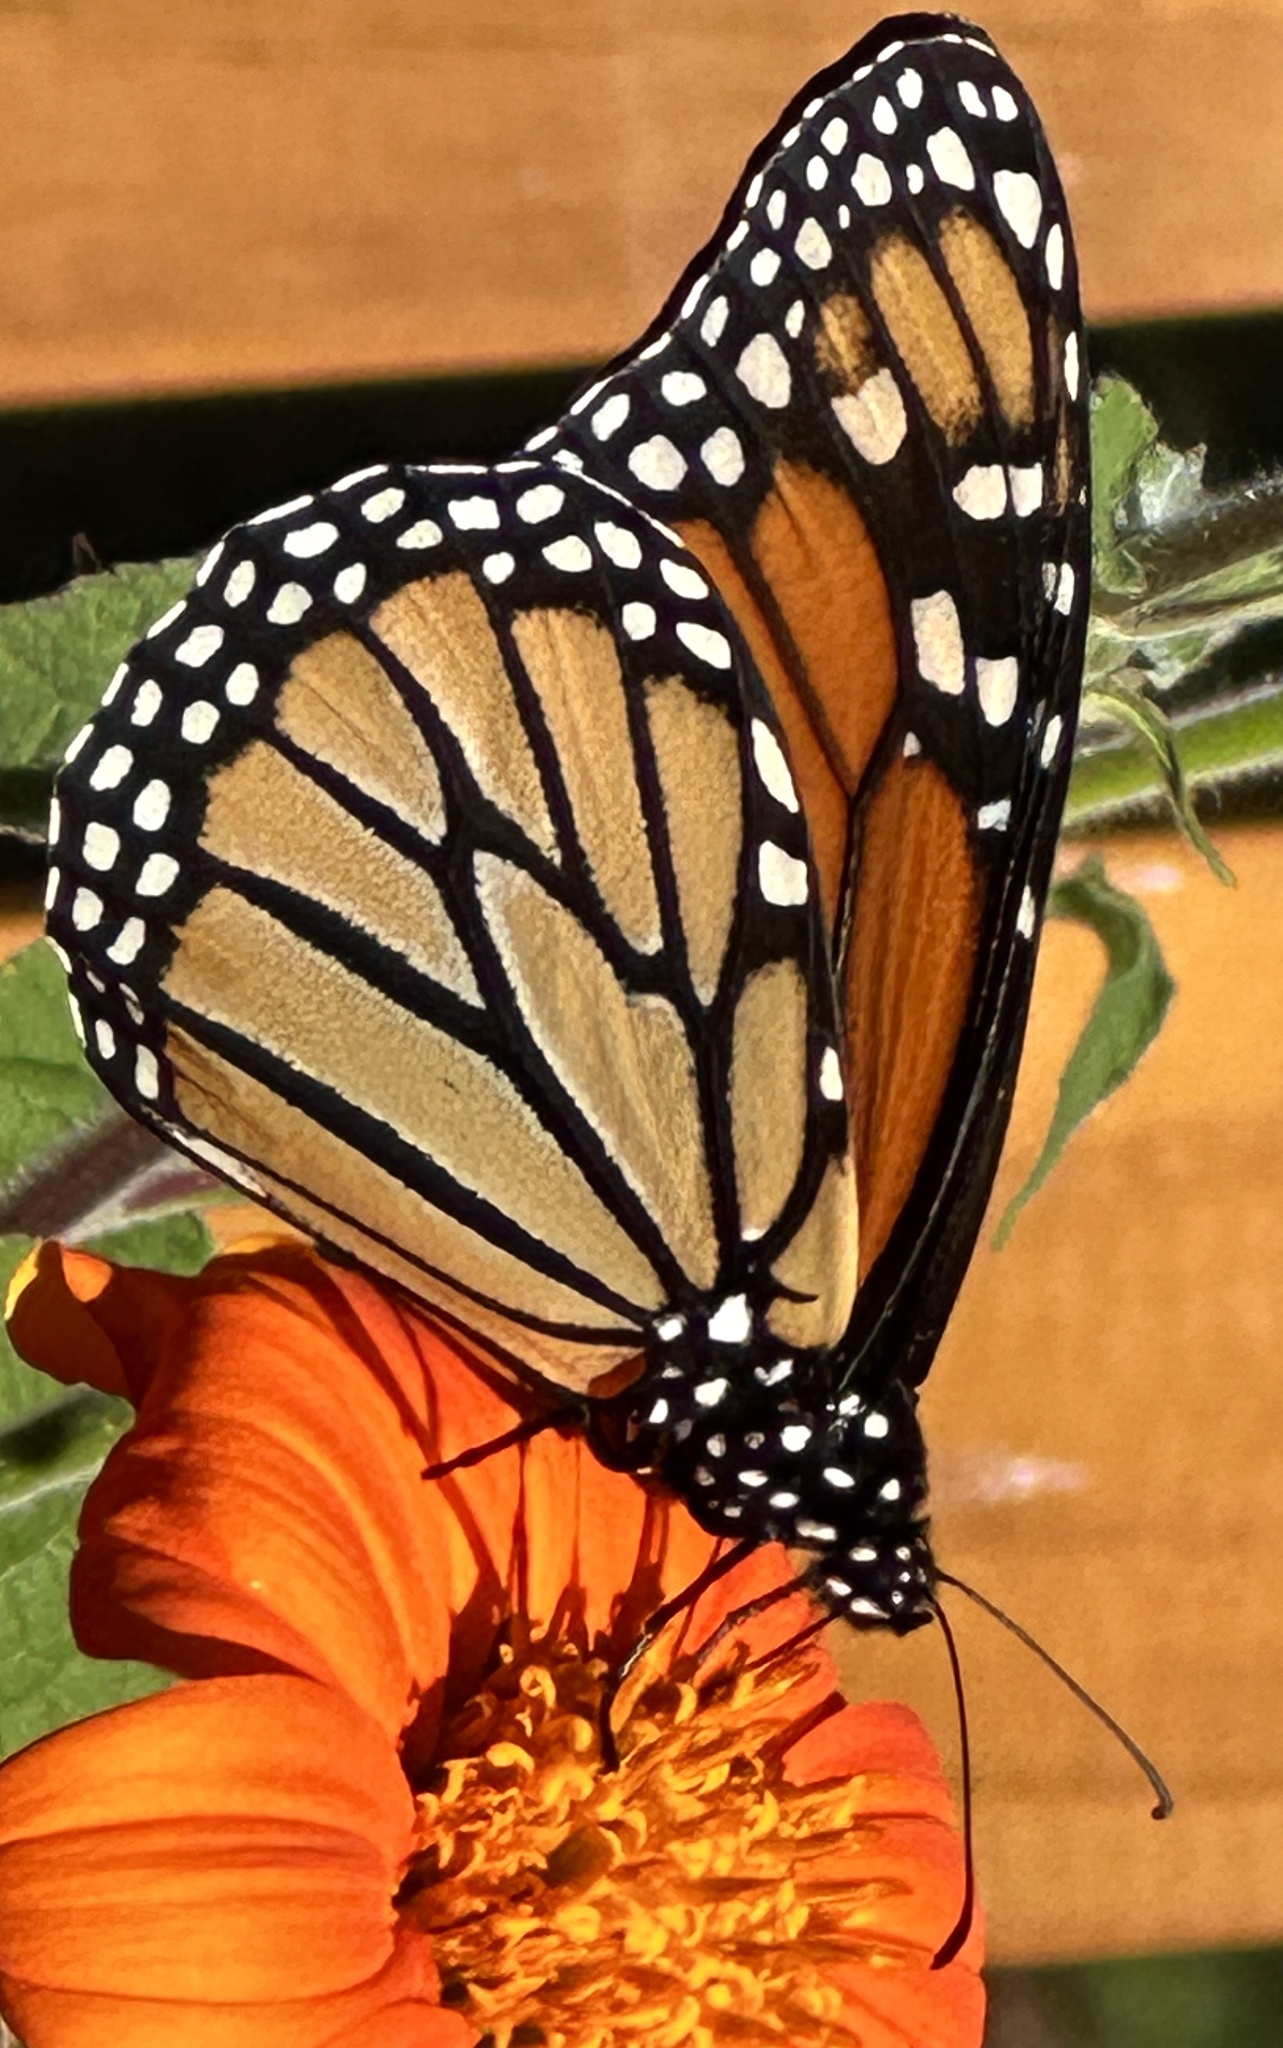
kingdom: Animalia
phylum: Arthropoda
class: Insecta
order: Lepidoptera
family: Nymphalidae
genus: Danaus
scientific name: Danaus plexippus
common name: Monarch
